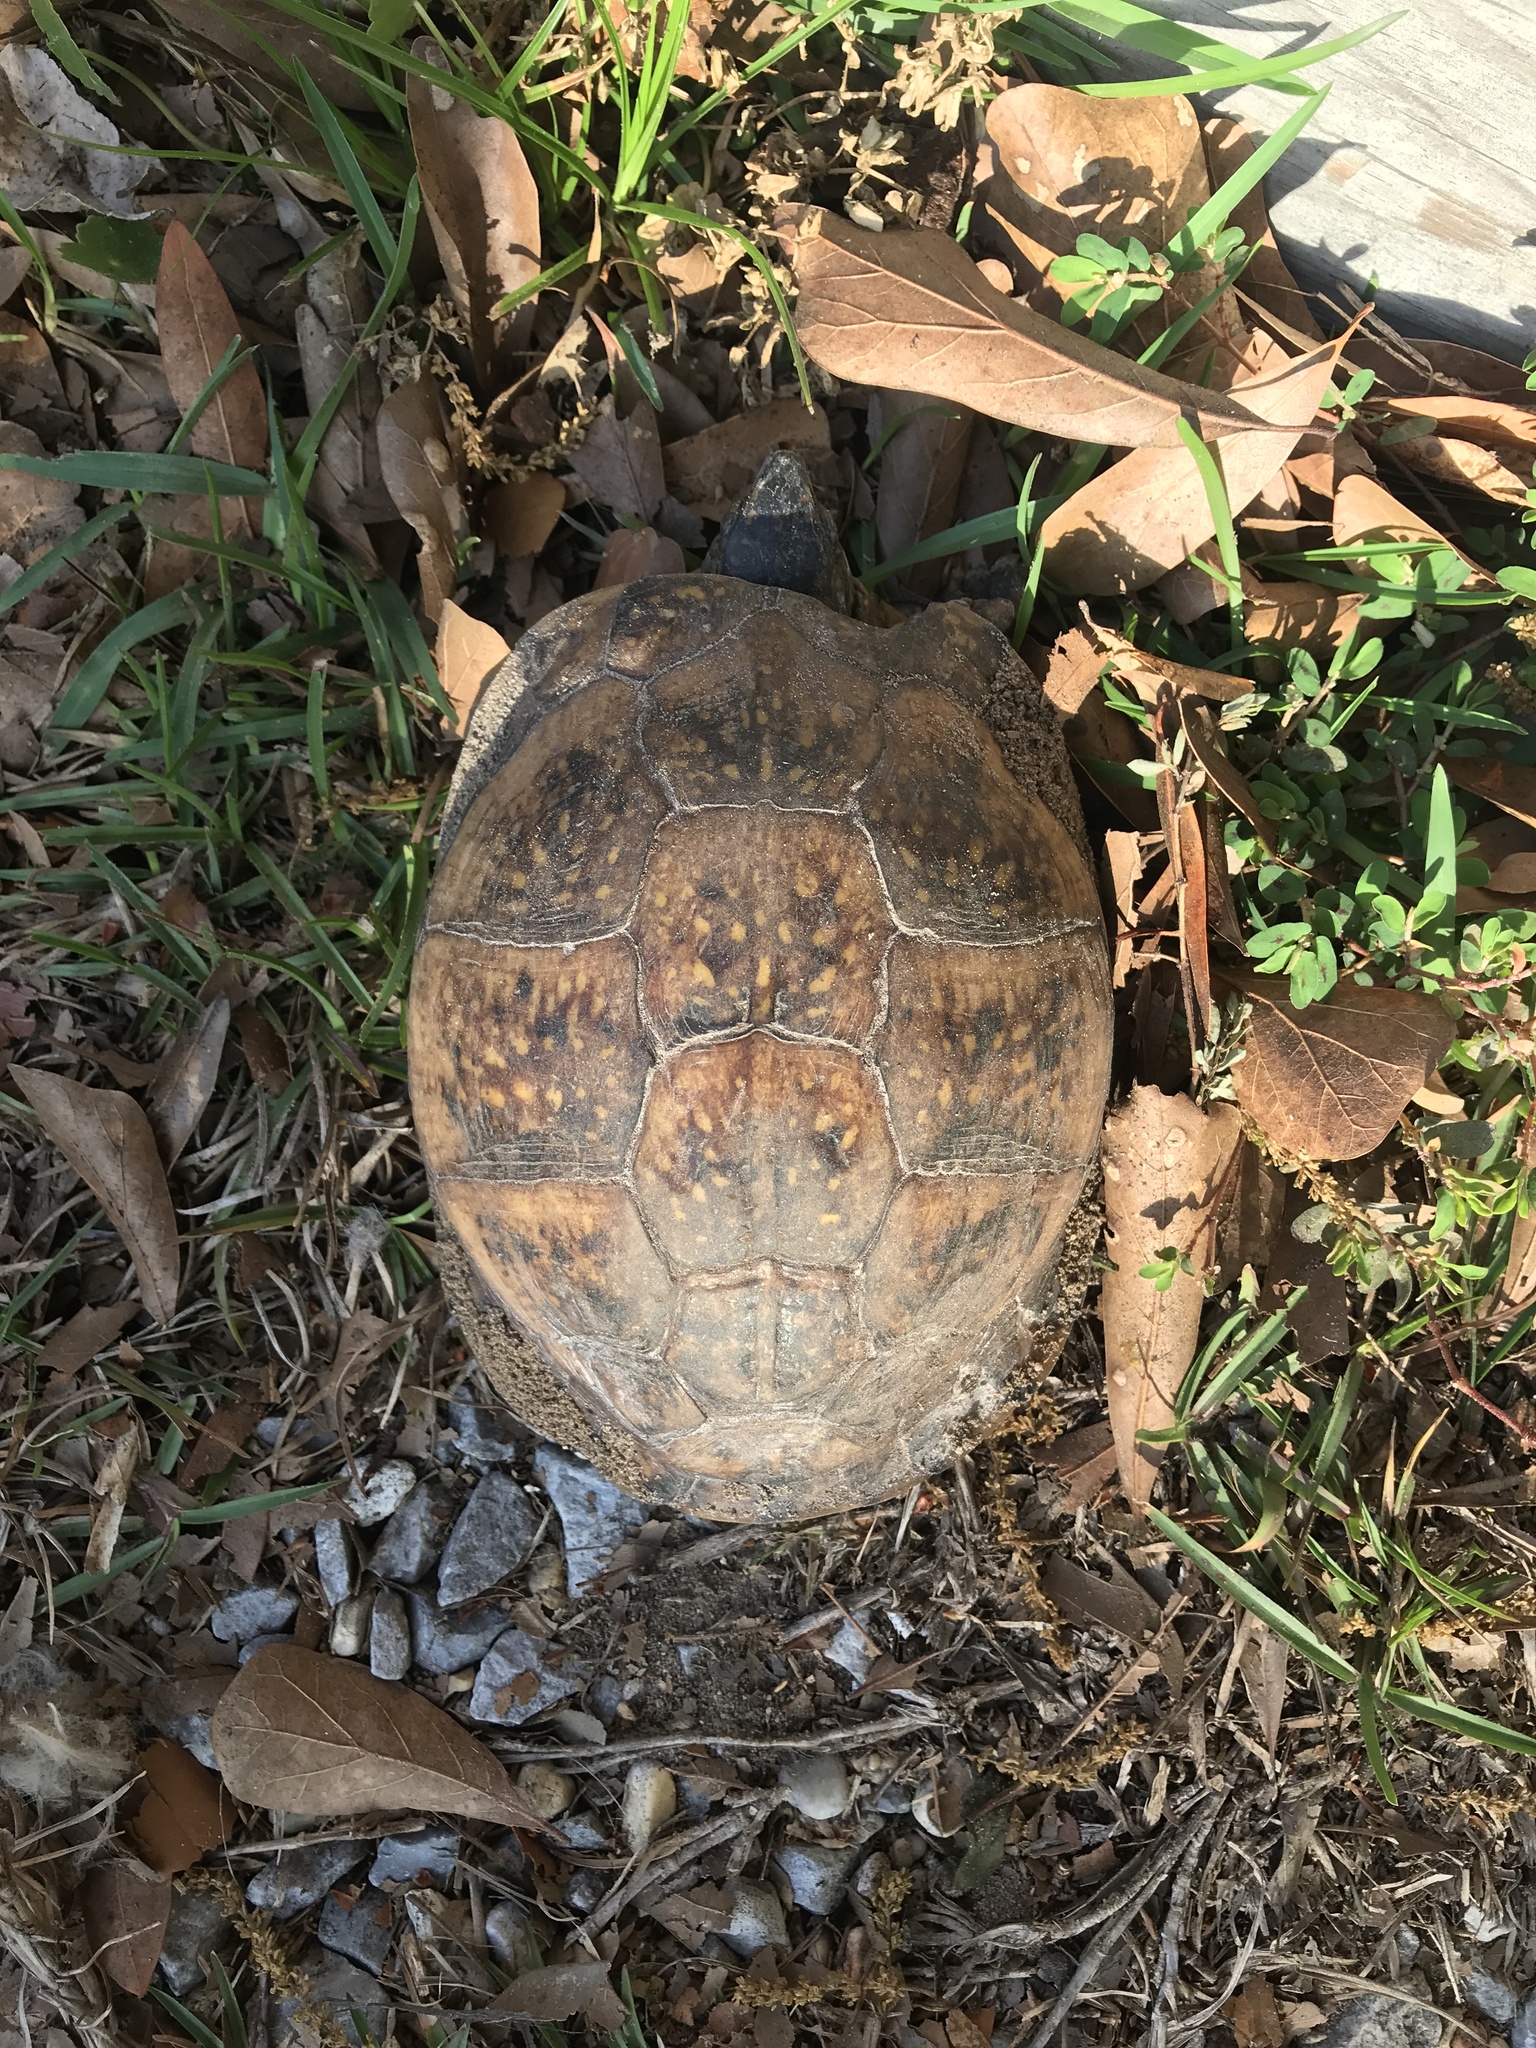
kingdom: Animalia
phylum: Chordata
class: Testudines
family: Emydidae
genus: Terrapene
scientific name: Terrapene carolina
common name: Common box turtle
